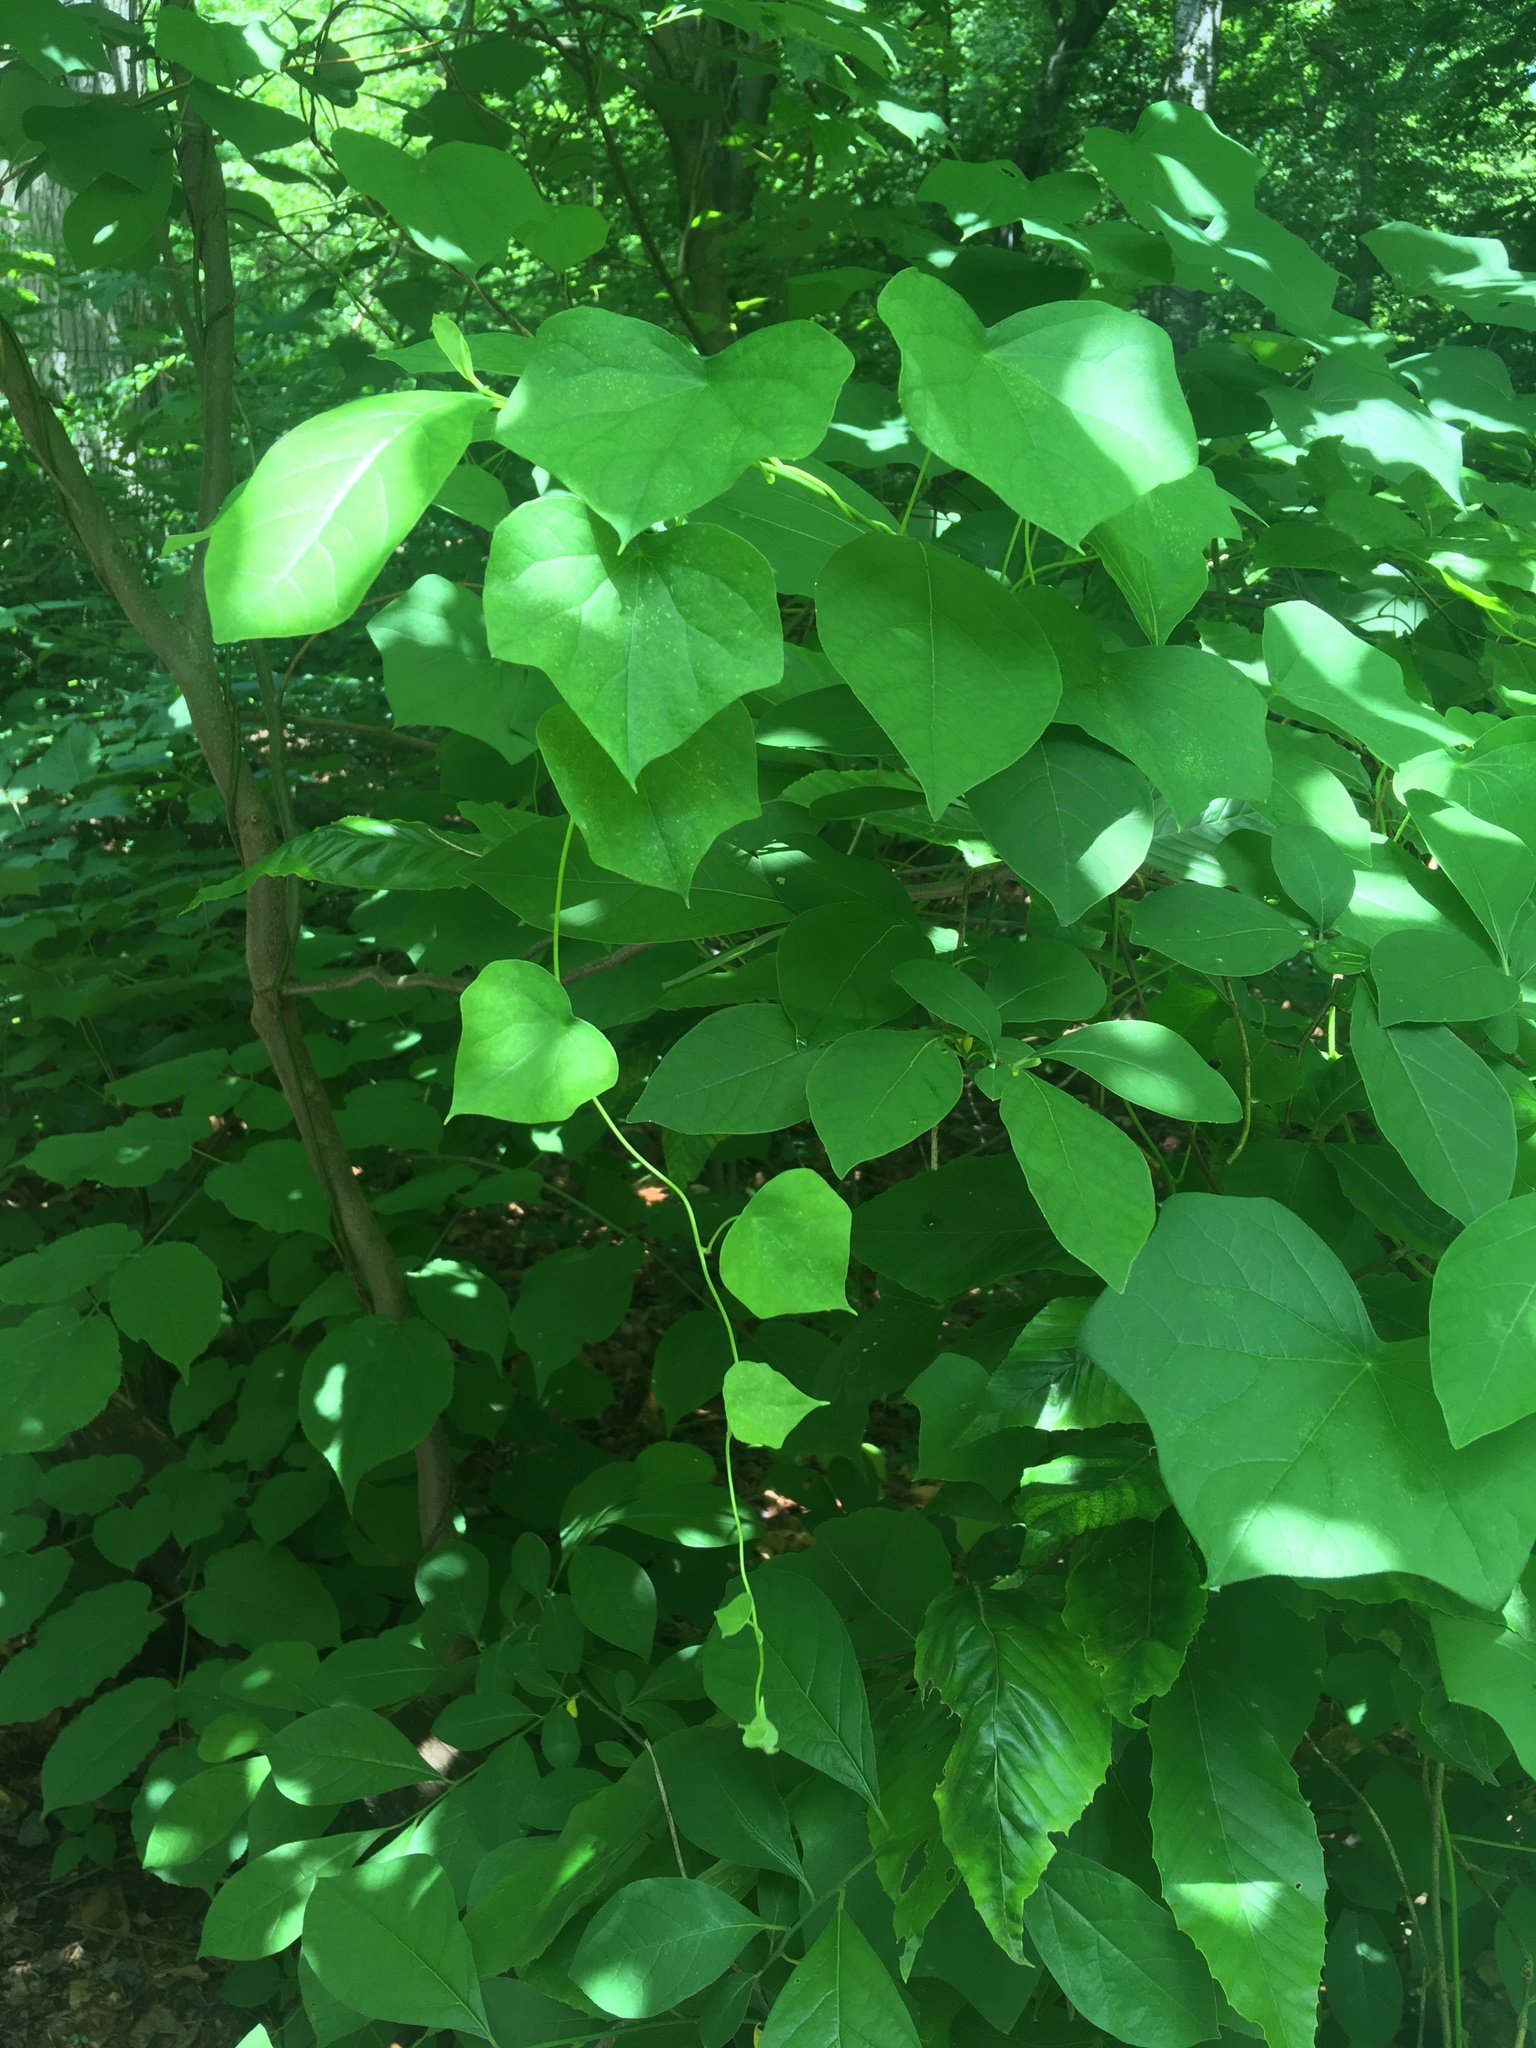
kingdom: Plantae
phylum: Tracheophyta
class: Magnoliopsida
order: Ranunculales
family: Menispermaceae
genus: Menispermum
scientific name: Menispermum canadense
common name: Moonseed
